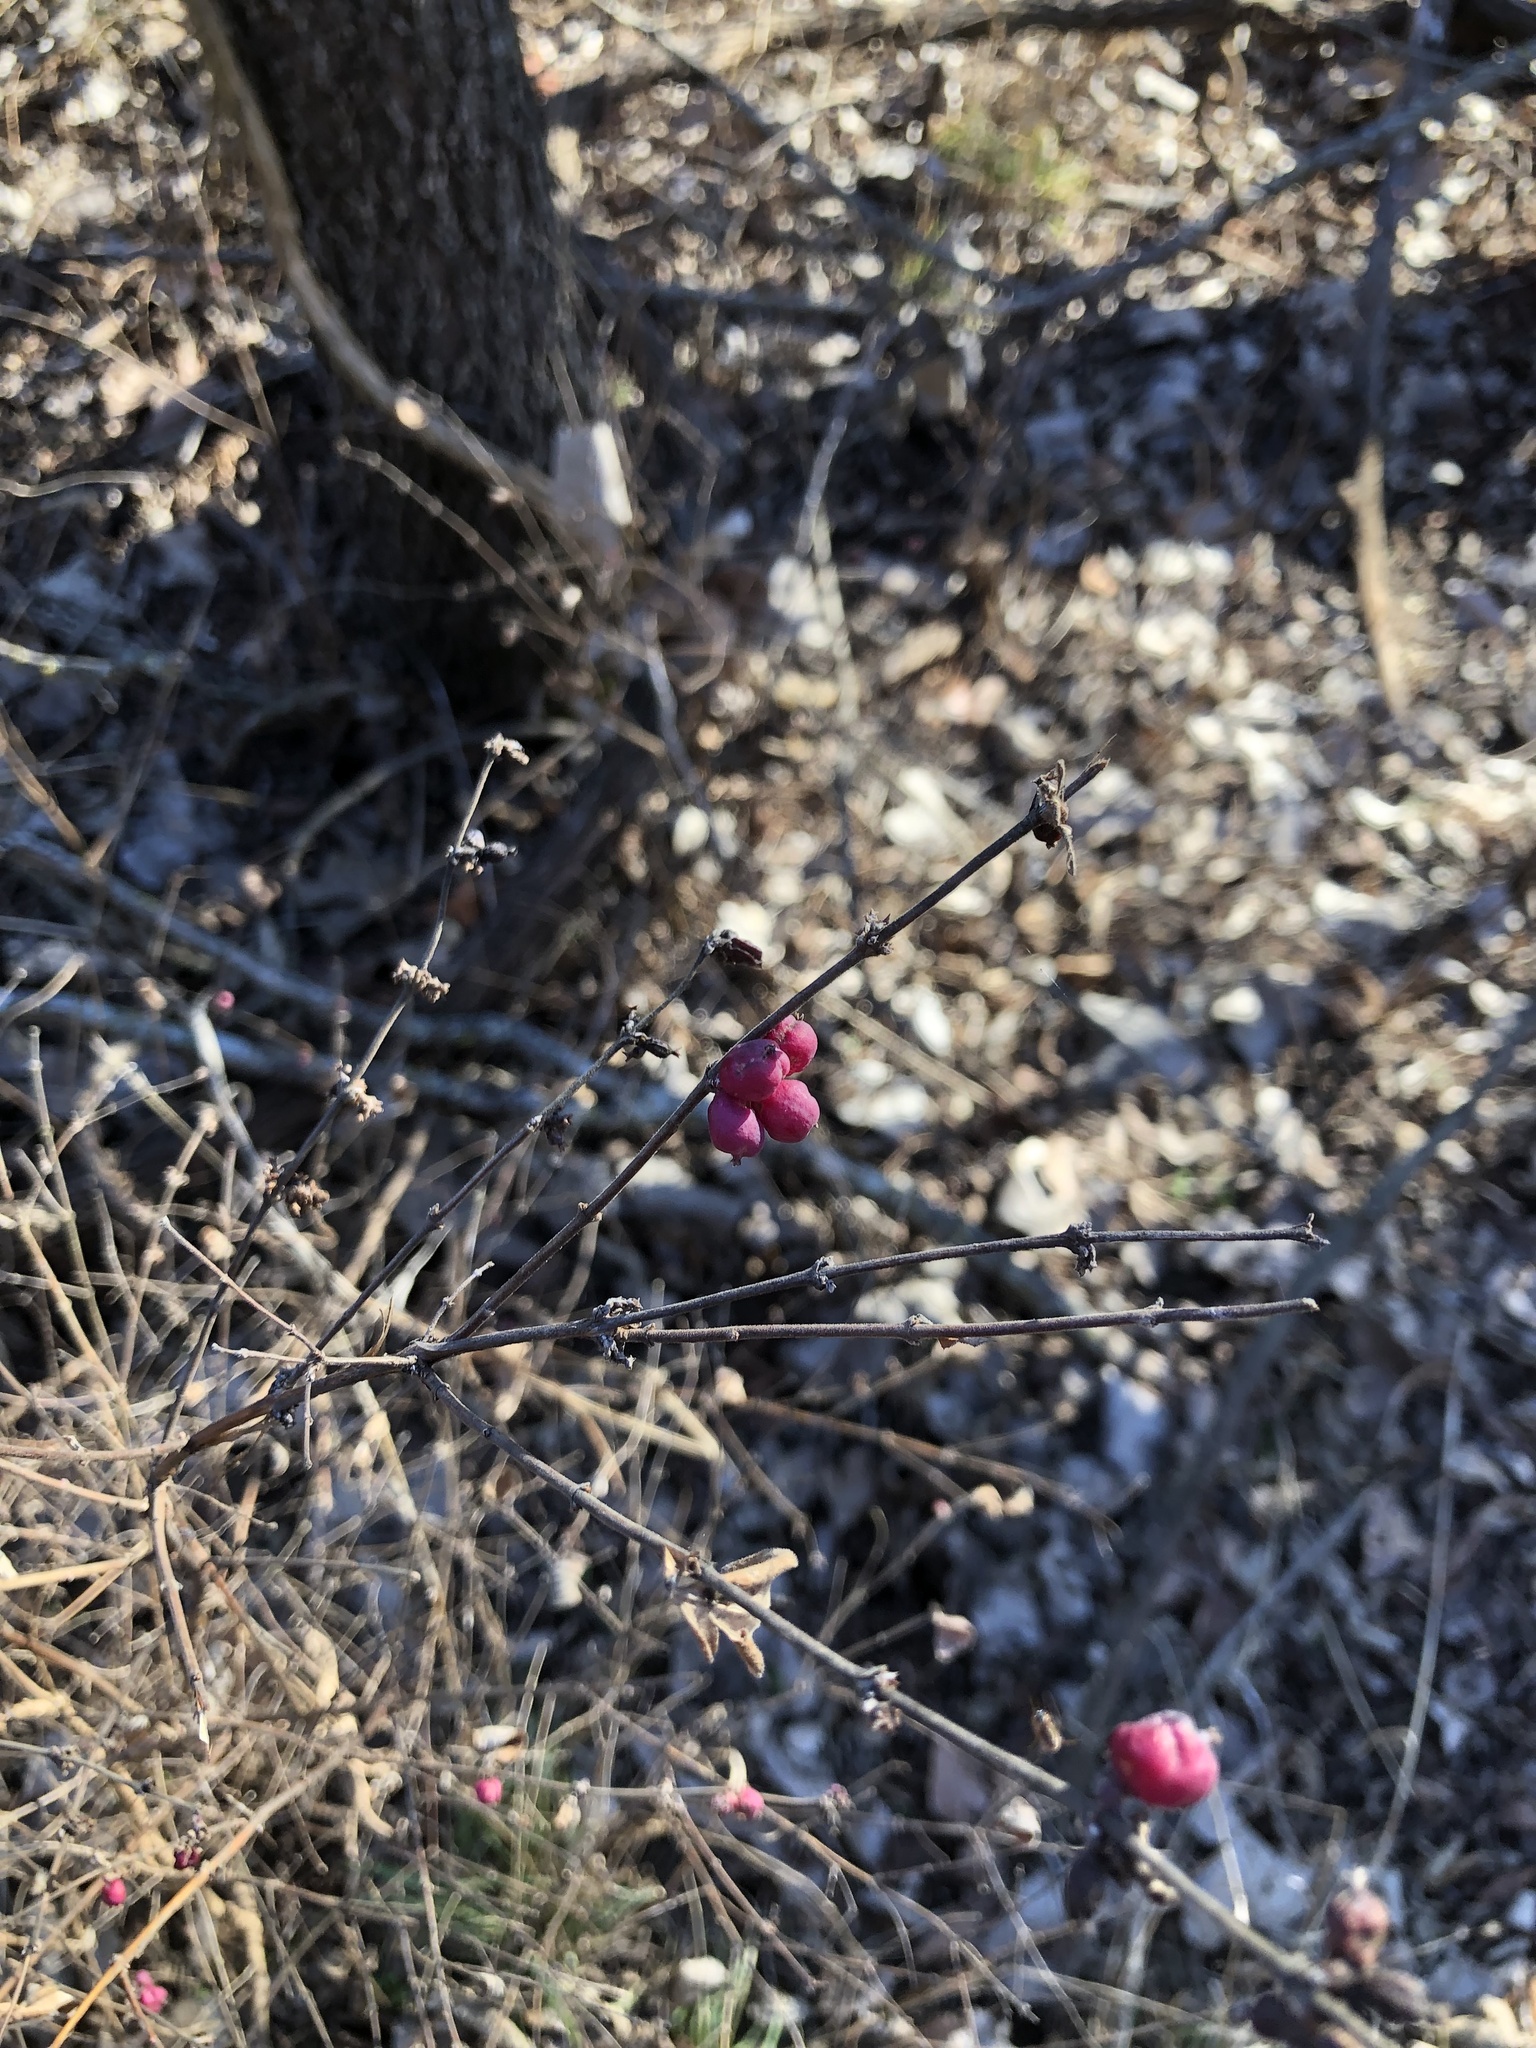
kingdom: Plantae
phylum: Tracheophyta
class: Magnoliopsida
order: Dipsacales
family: Caprifoliaceae
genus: Symphoricarpos
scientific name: Symphoricarpos orbiculatus
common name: Coralberry
